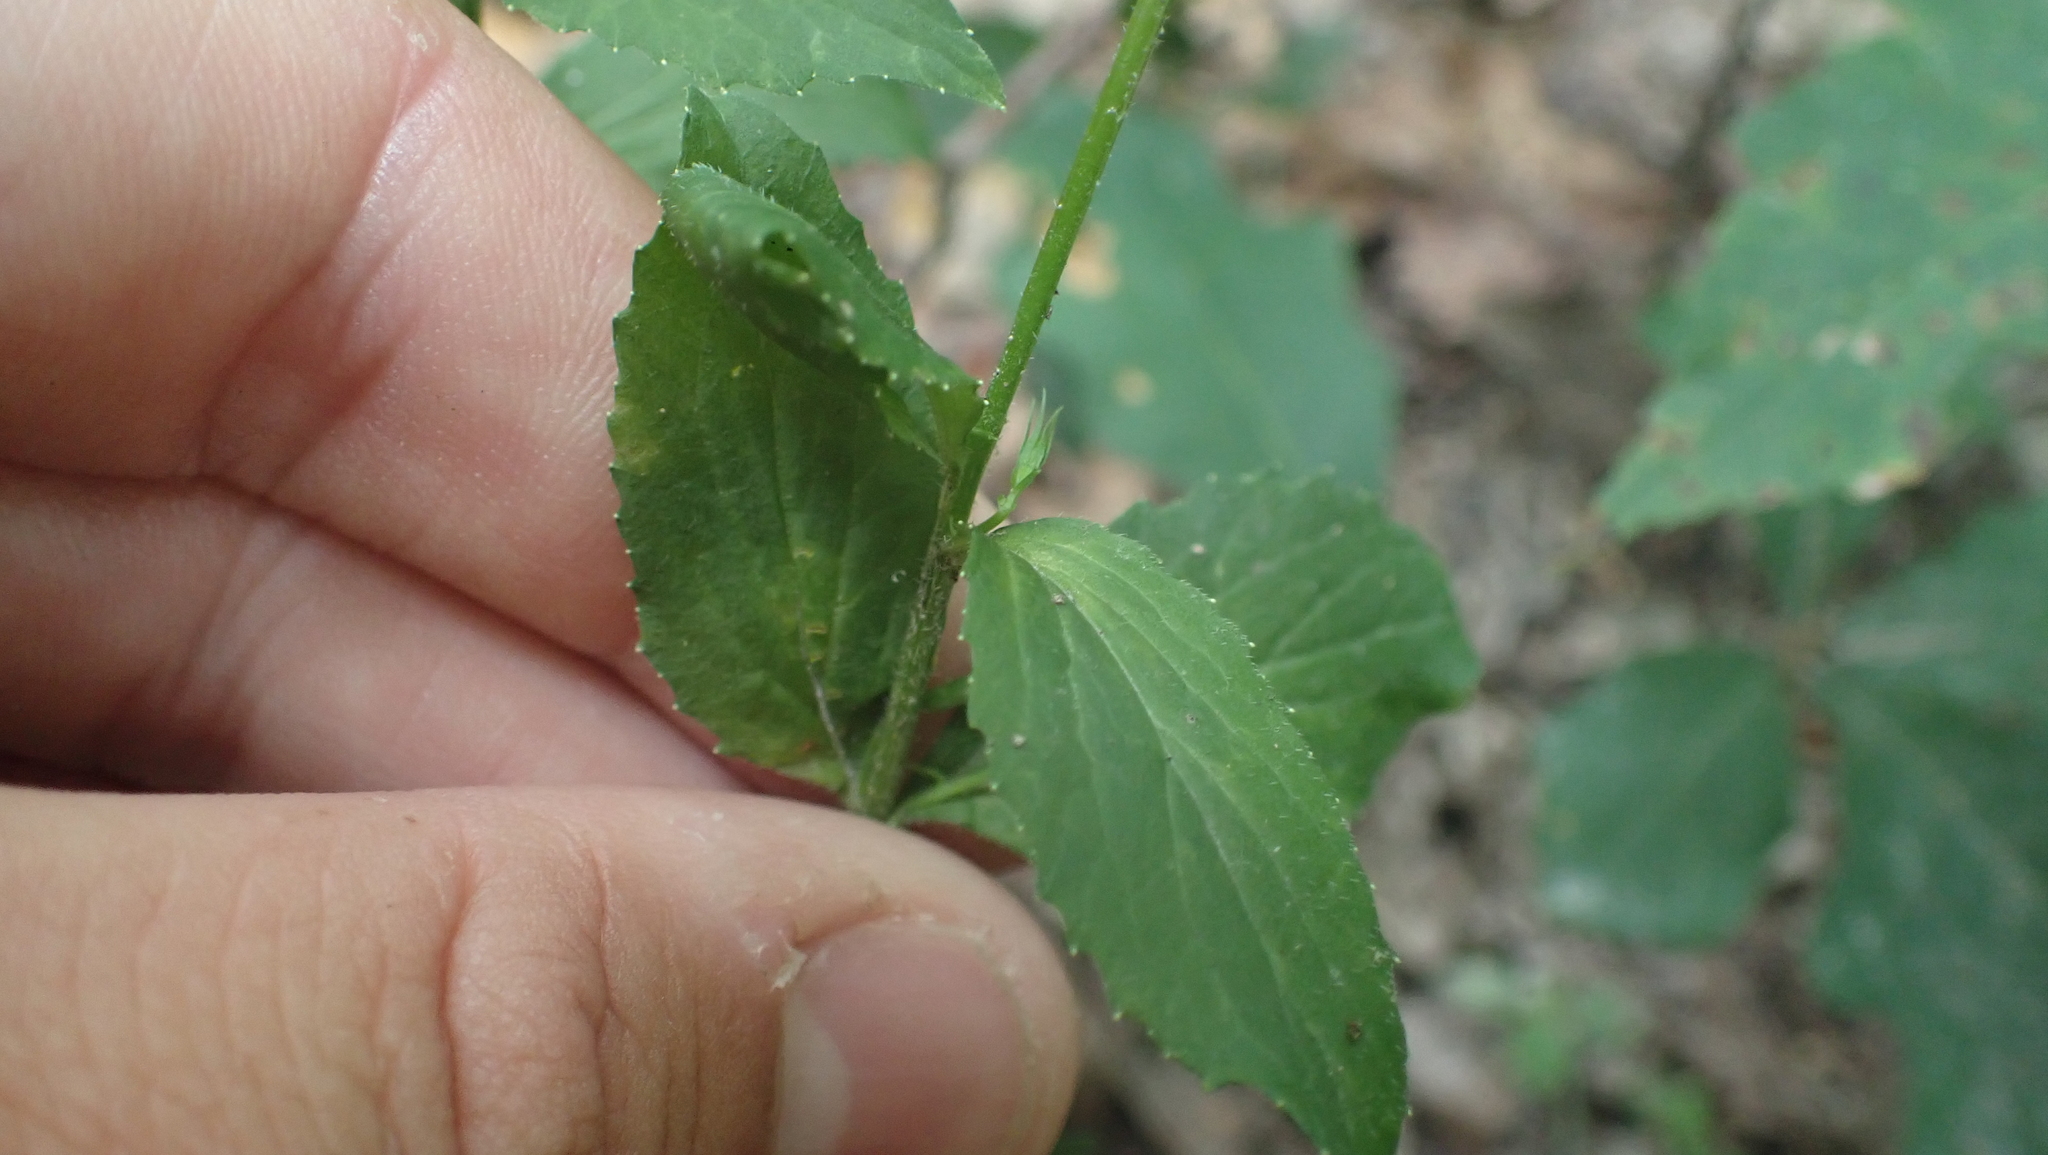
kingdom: Plantae
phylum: Tracheophyta
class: Magnoliopsida
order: Asterales
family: Campanulaceae
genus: Lobelia
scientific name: Lobelia inflata
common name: Indian tobacco
